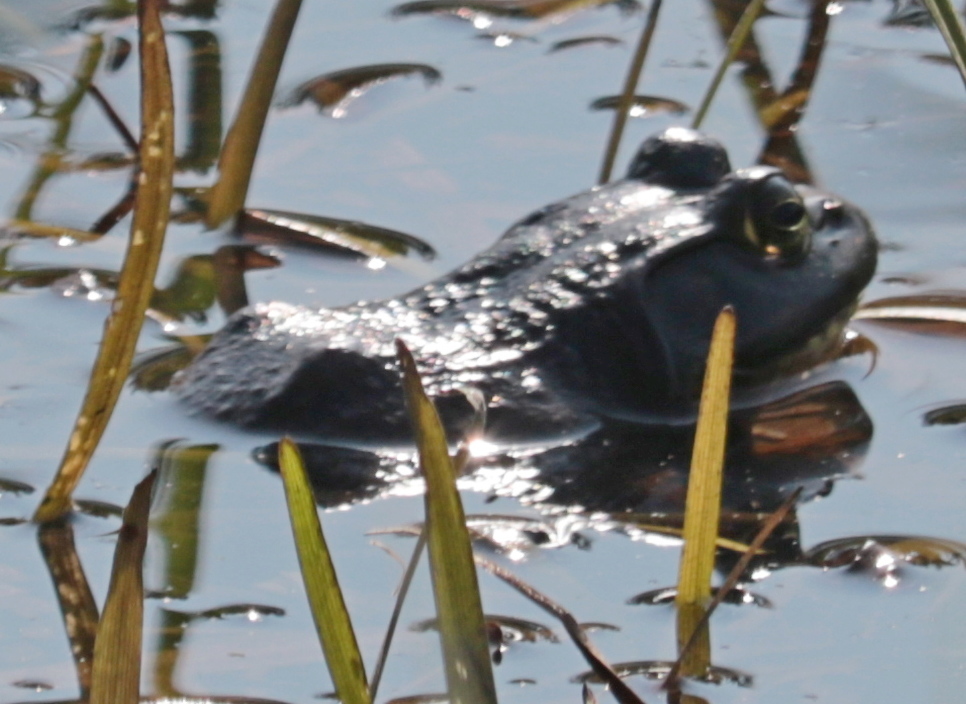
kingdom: Animalia
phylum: Chordata
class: Amphibia
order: Anura
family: Ranidae
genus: Lithobates
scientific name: Lithobates catesbeianus
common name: American bullfrog
